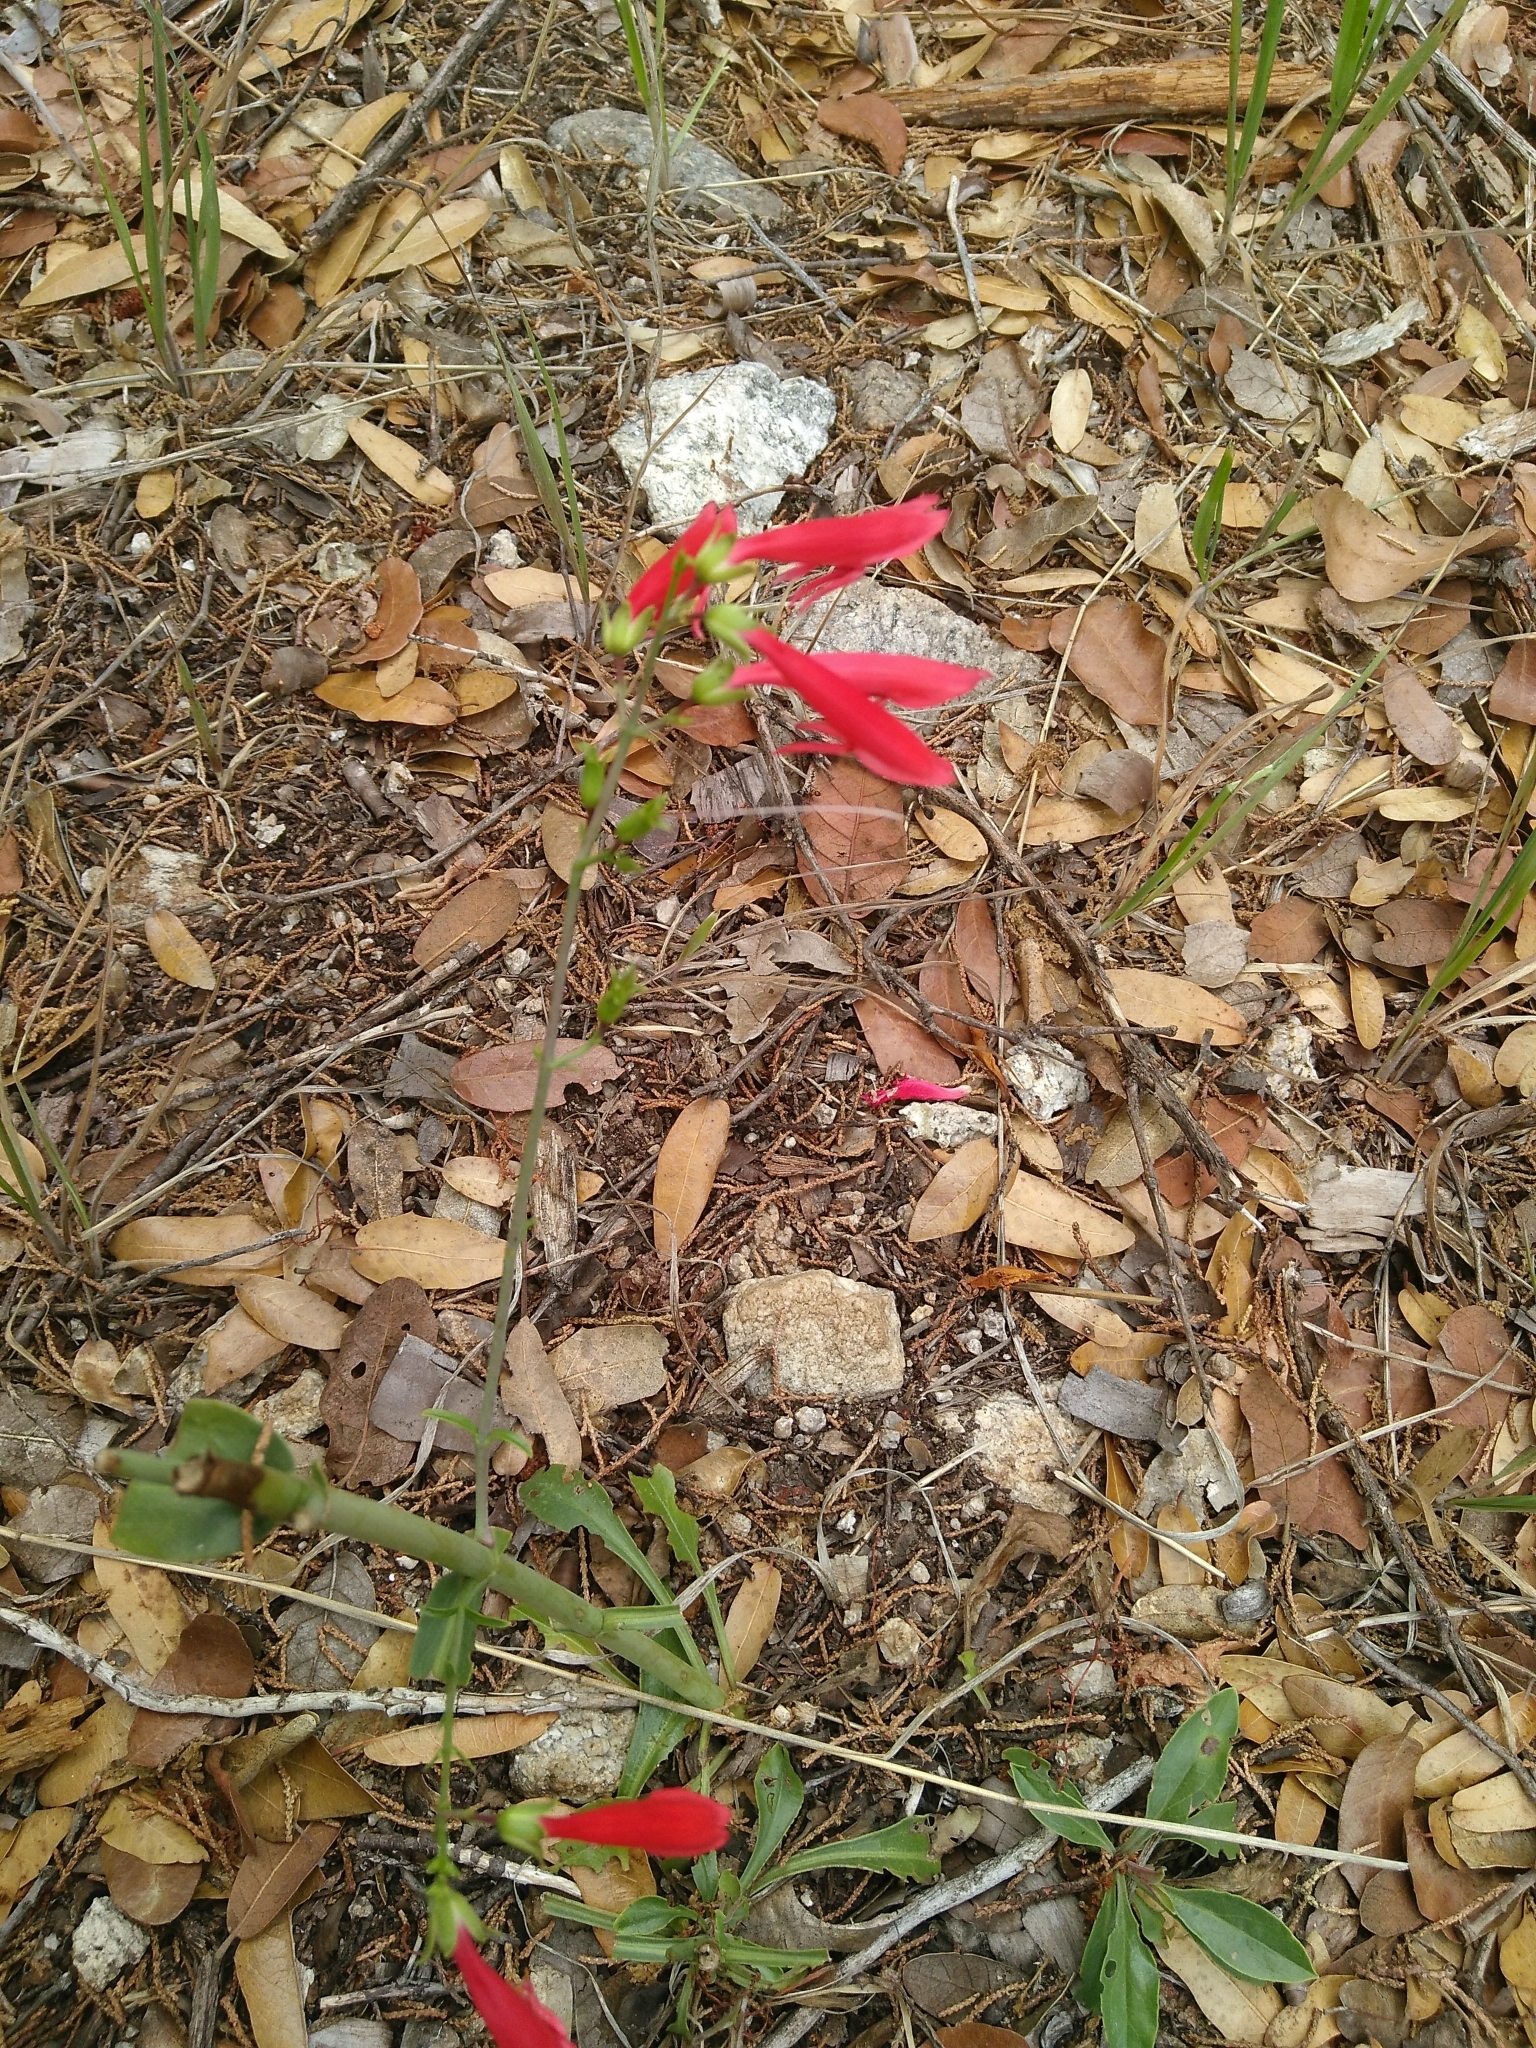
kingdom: Plantae
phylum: Tracheophyta
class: Magnoliopsida
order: Lamiales
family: Plantaginaceae
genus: Penstemon
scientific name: Penstemon barbatus
